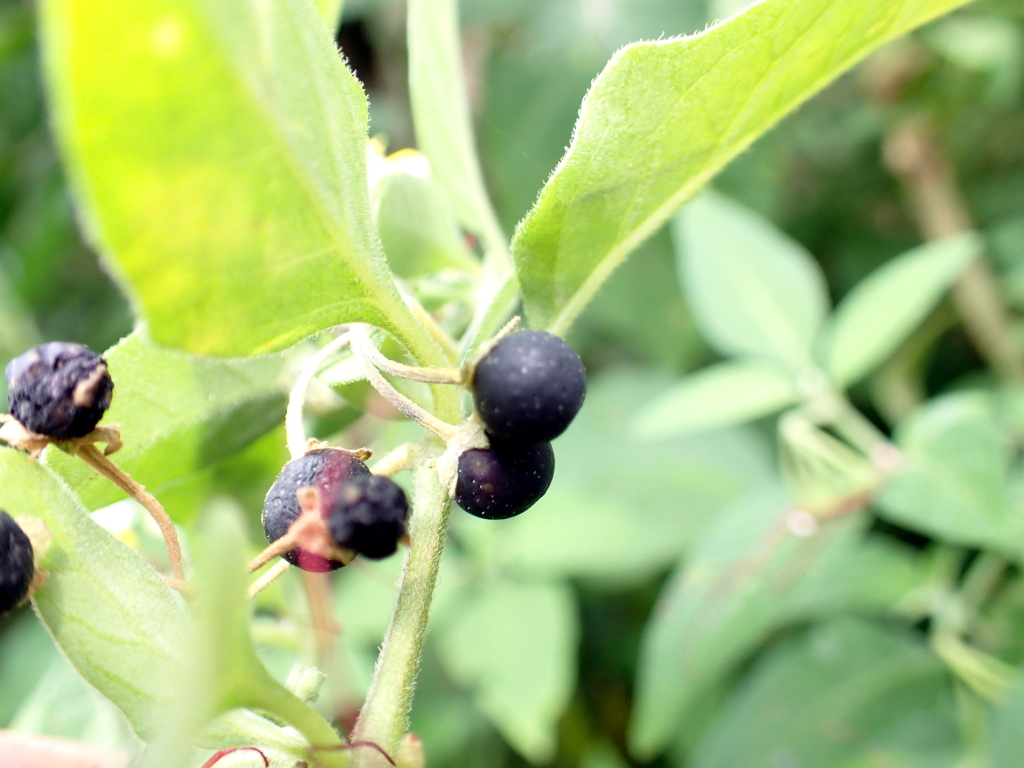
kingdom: Plantae
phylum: Tracheophyta
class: Magnoliopsida
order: Solanales
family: Solanaceae
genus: Solanum
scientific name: Solanum nigrum
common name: Black nightshade
